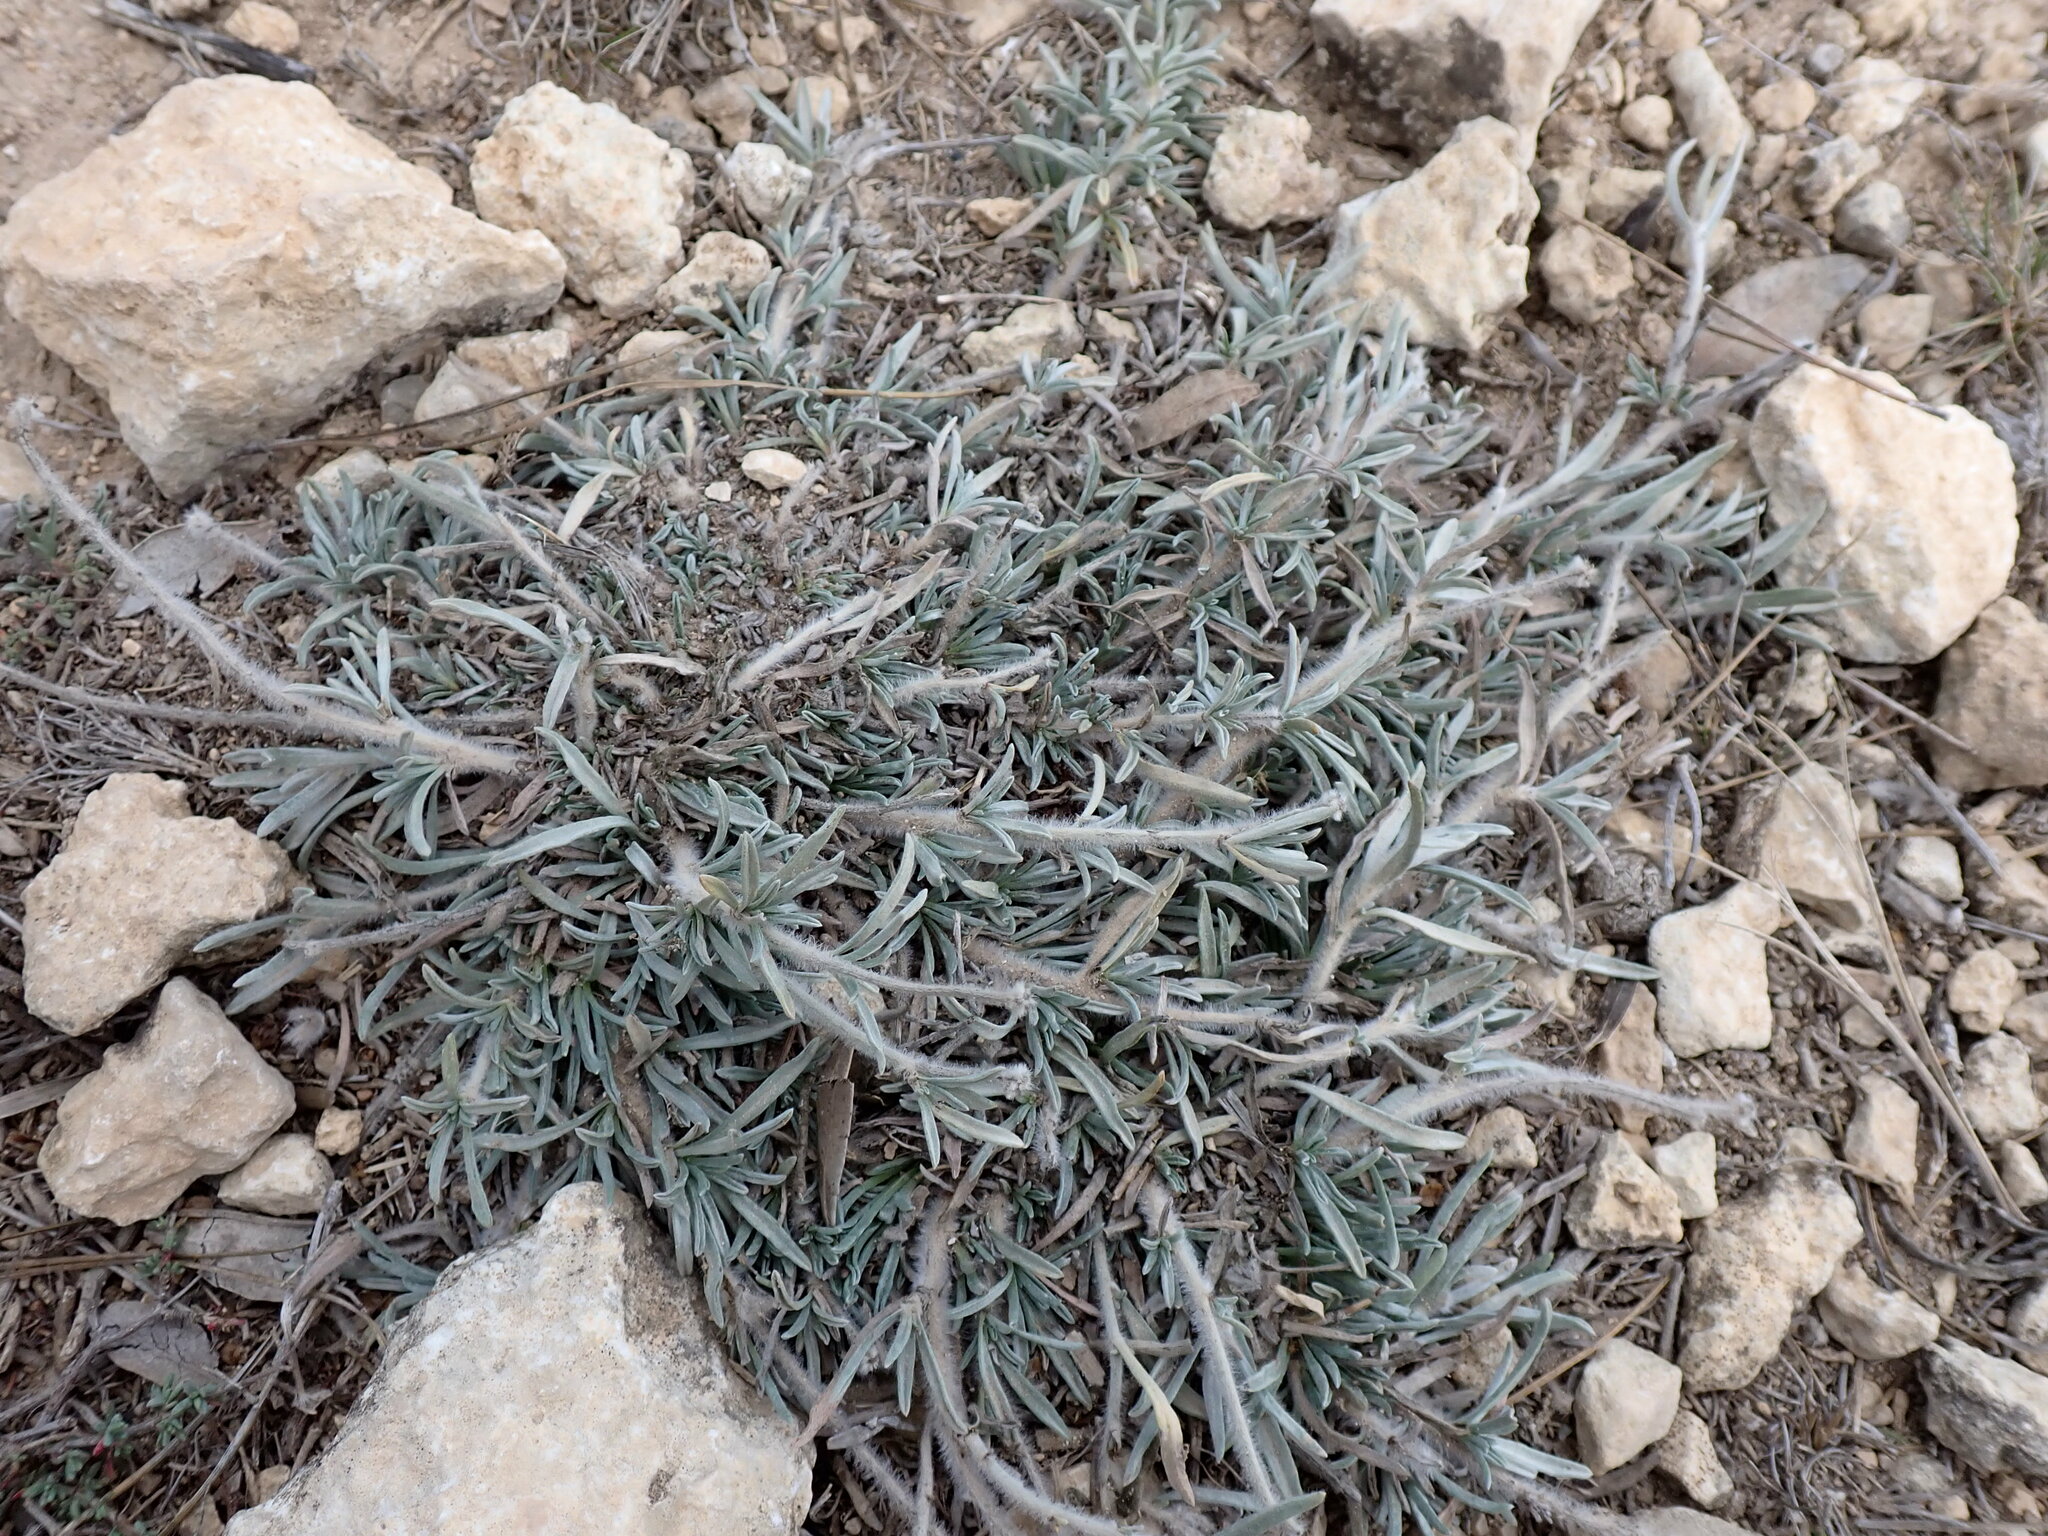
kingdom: Plantae
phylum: Tracheophyta
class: Magnoliopsida
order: Solanales
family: Convolvulaceae
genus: Convolvulus
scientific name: Convolvulus lanuginosus
